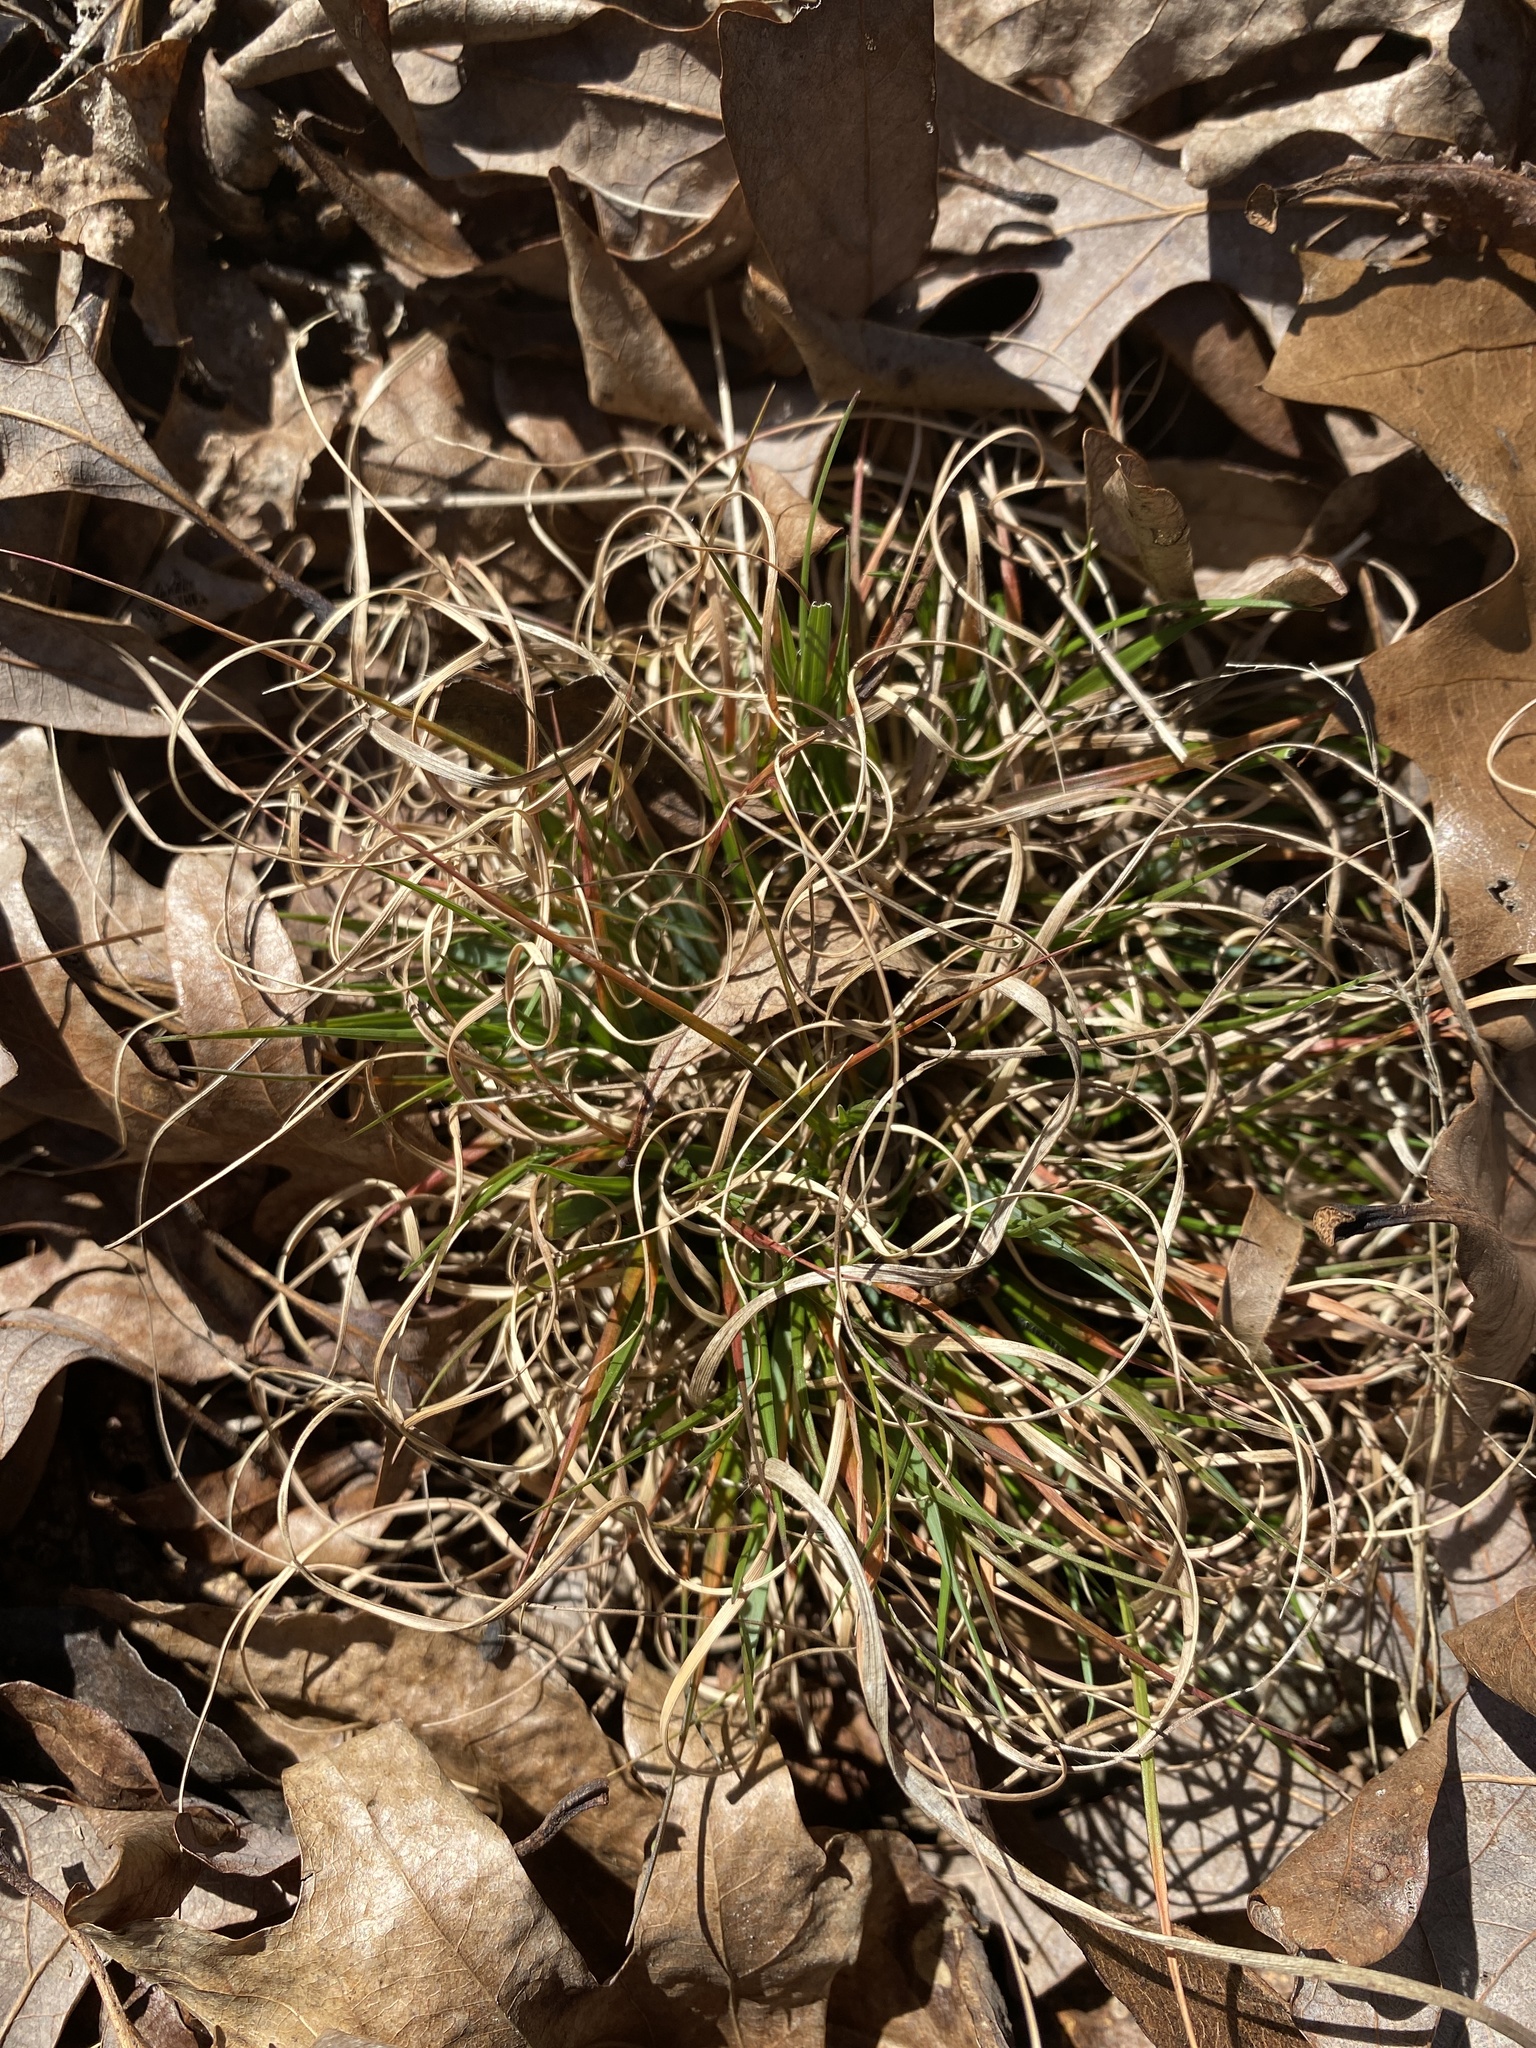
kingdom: Plantae
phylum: Tracheophyta
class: Liliopsida
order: Poales
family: Poaceae
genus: Danthonia
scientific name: Danthonia spicata
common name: Common wild oatgrass
